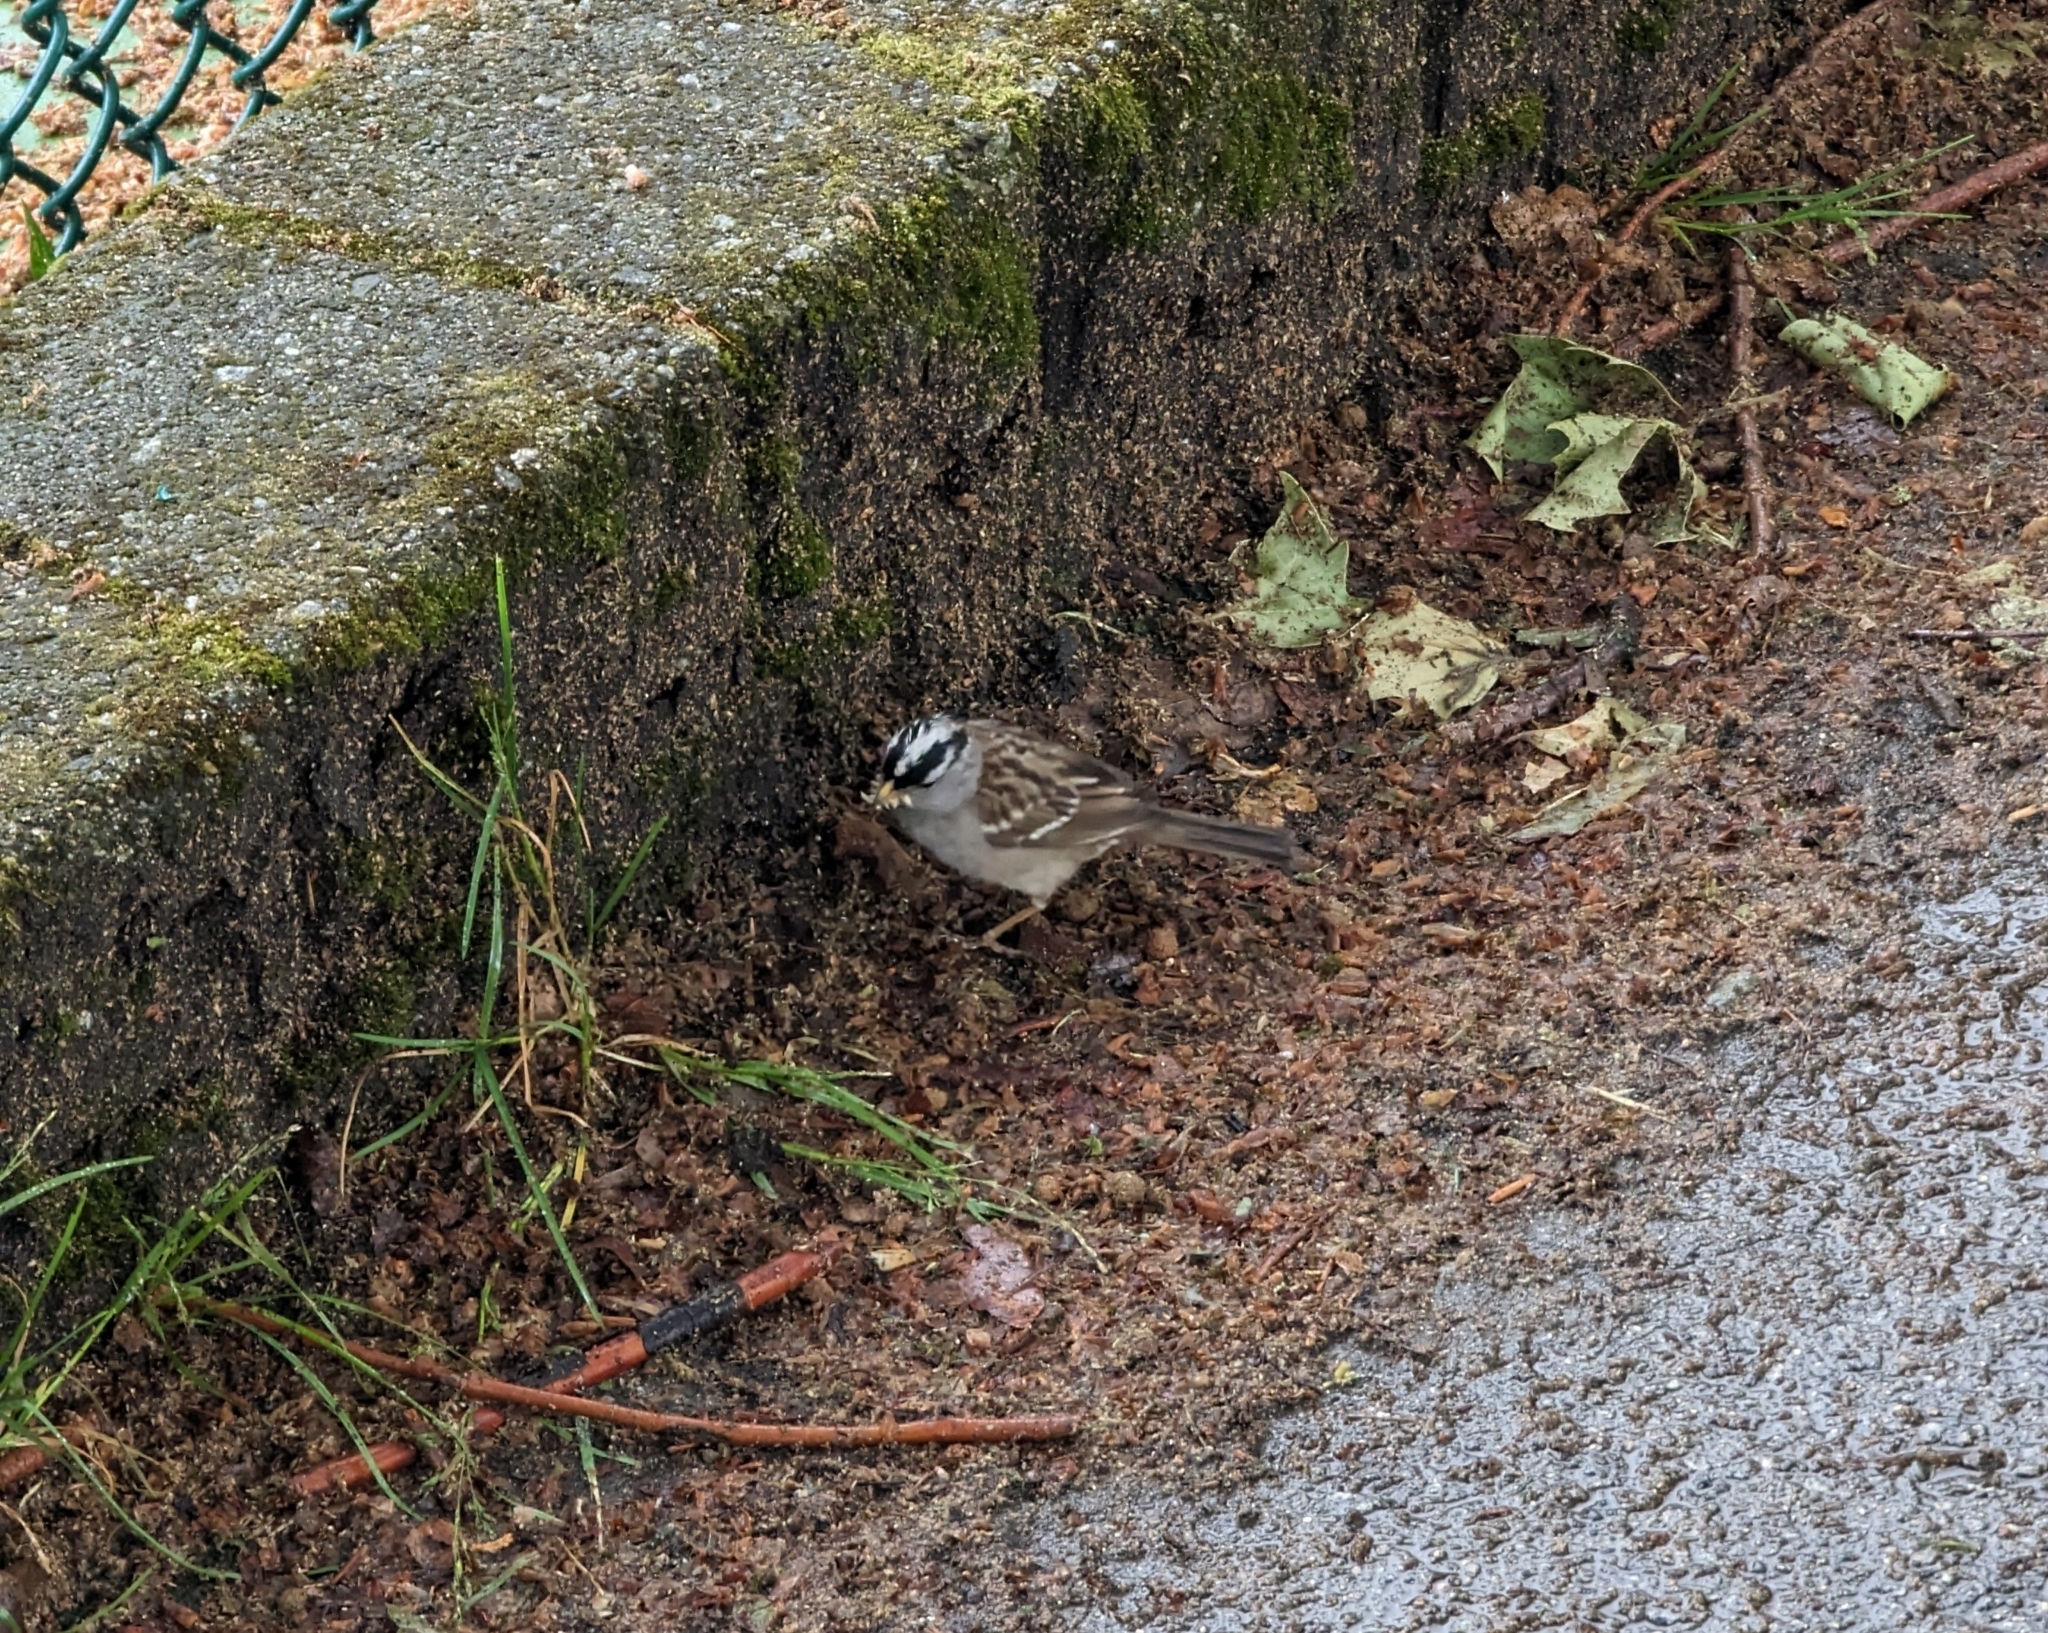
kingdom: Animalia
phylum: Chordata
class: Aves
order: Passeriformes
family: Passerellidae
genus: Zonotrichia
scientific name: Zonotrichia leucophrys
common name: White-crowned sparrow
